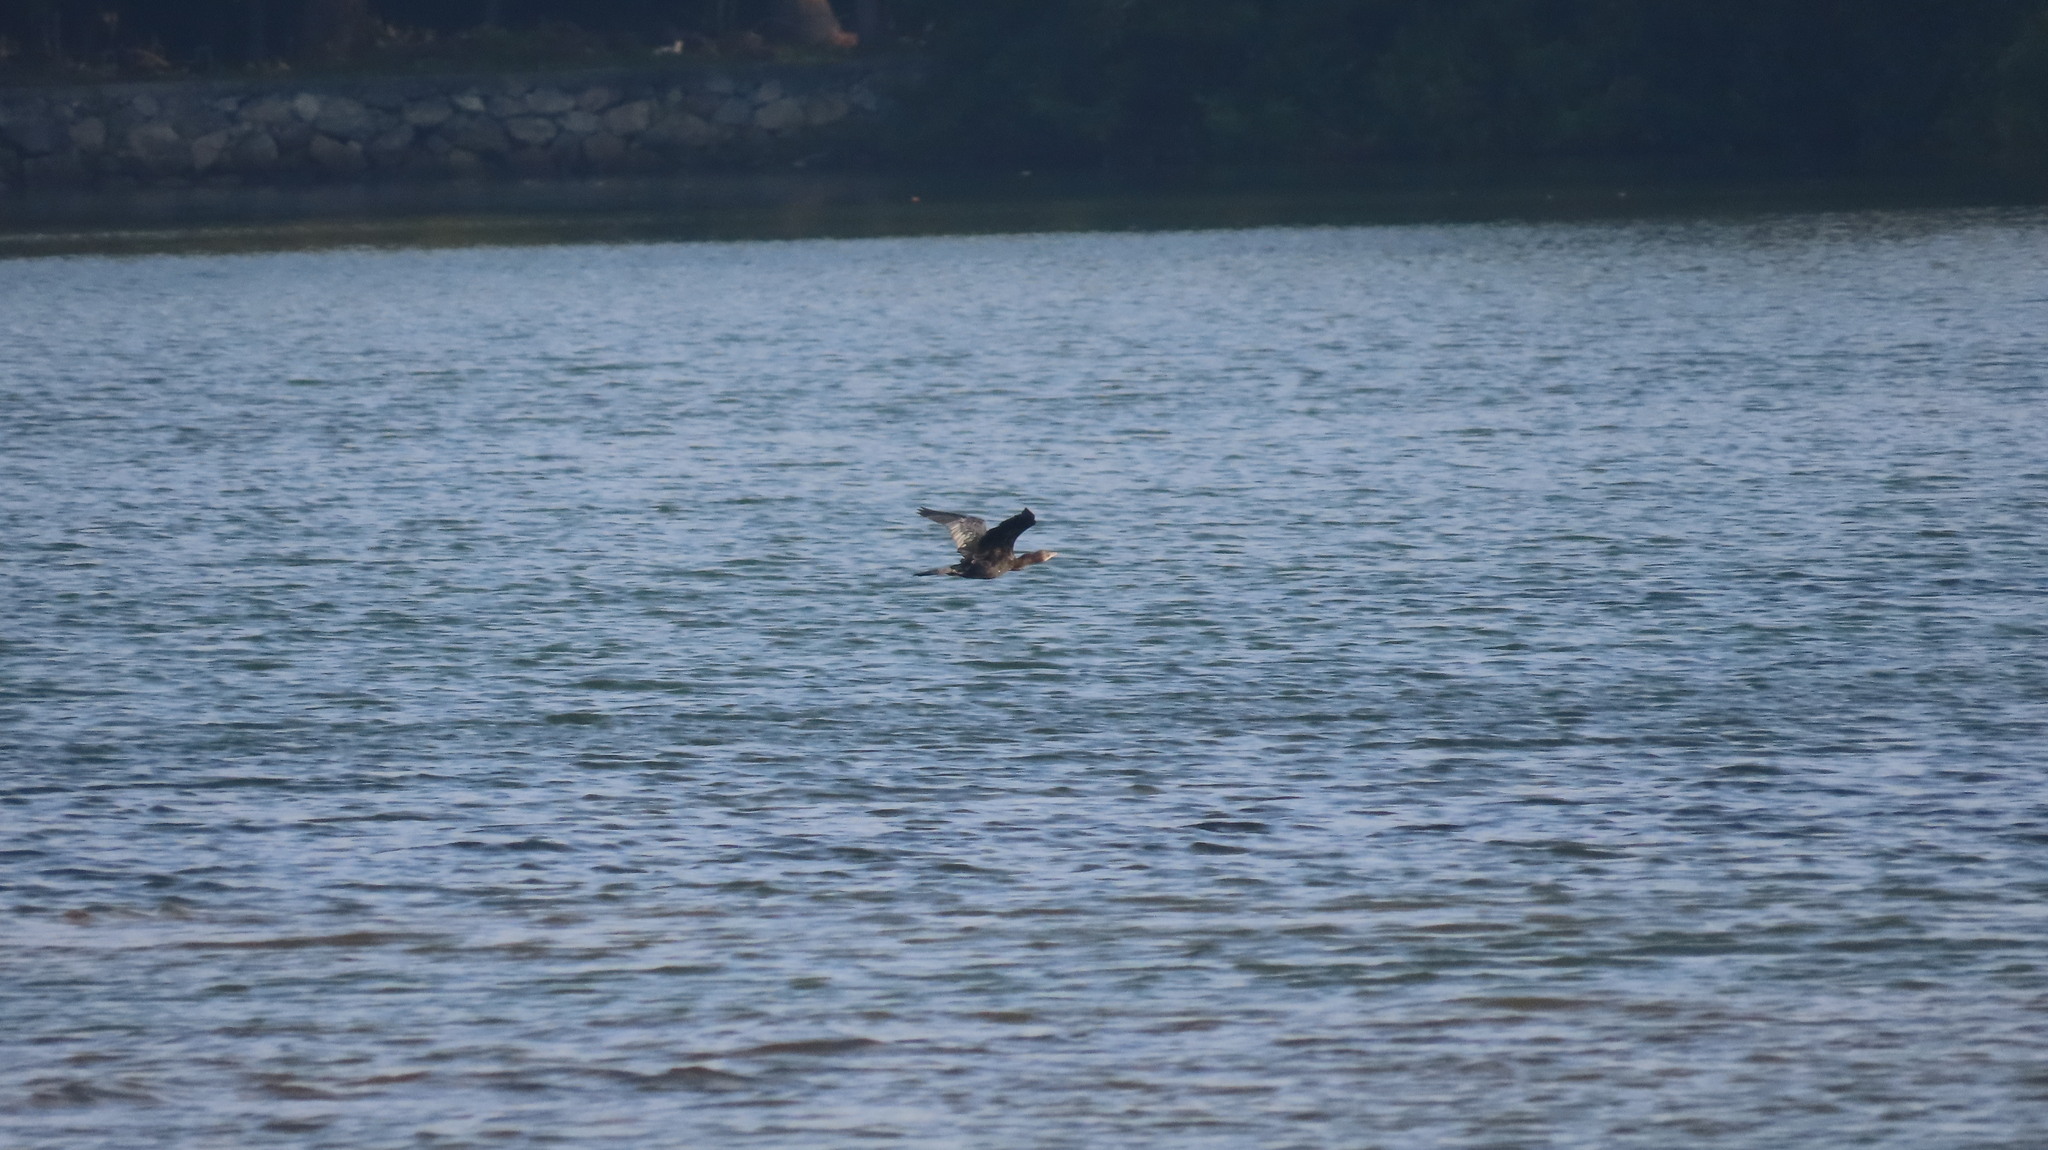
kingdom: Animalia
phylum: Chordata
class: Aves
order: Suliformes
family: Phalacrocoracidae
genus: Microcarbo
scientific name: Microcarbo niger
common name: Little cormorant
